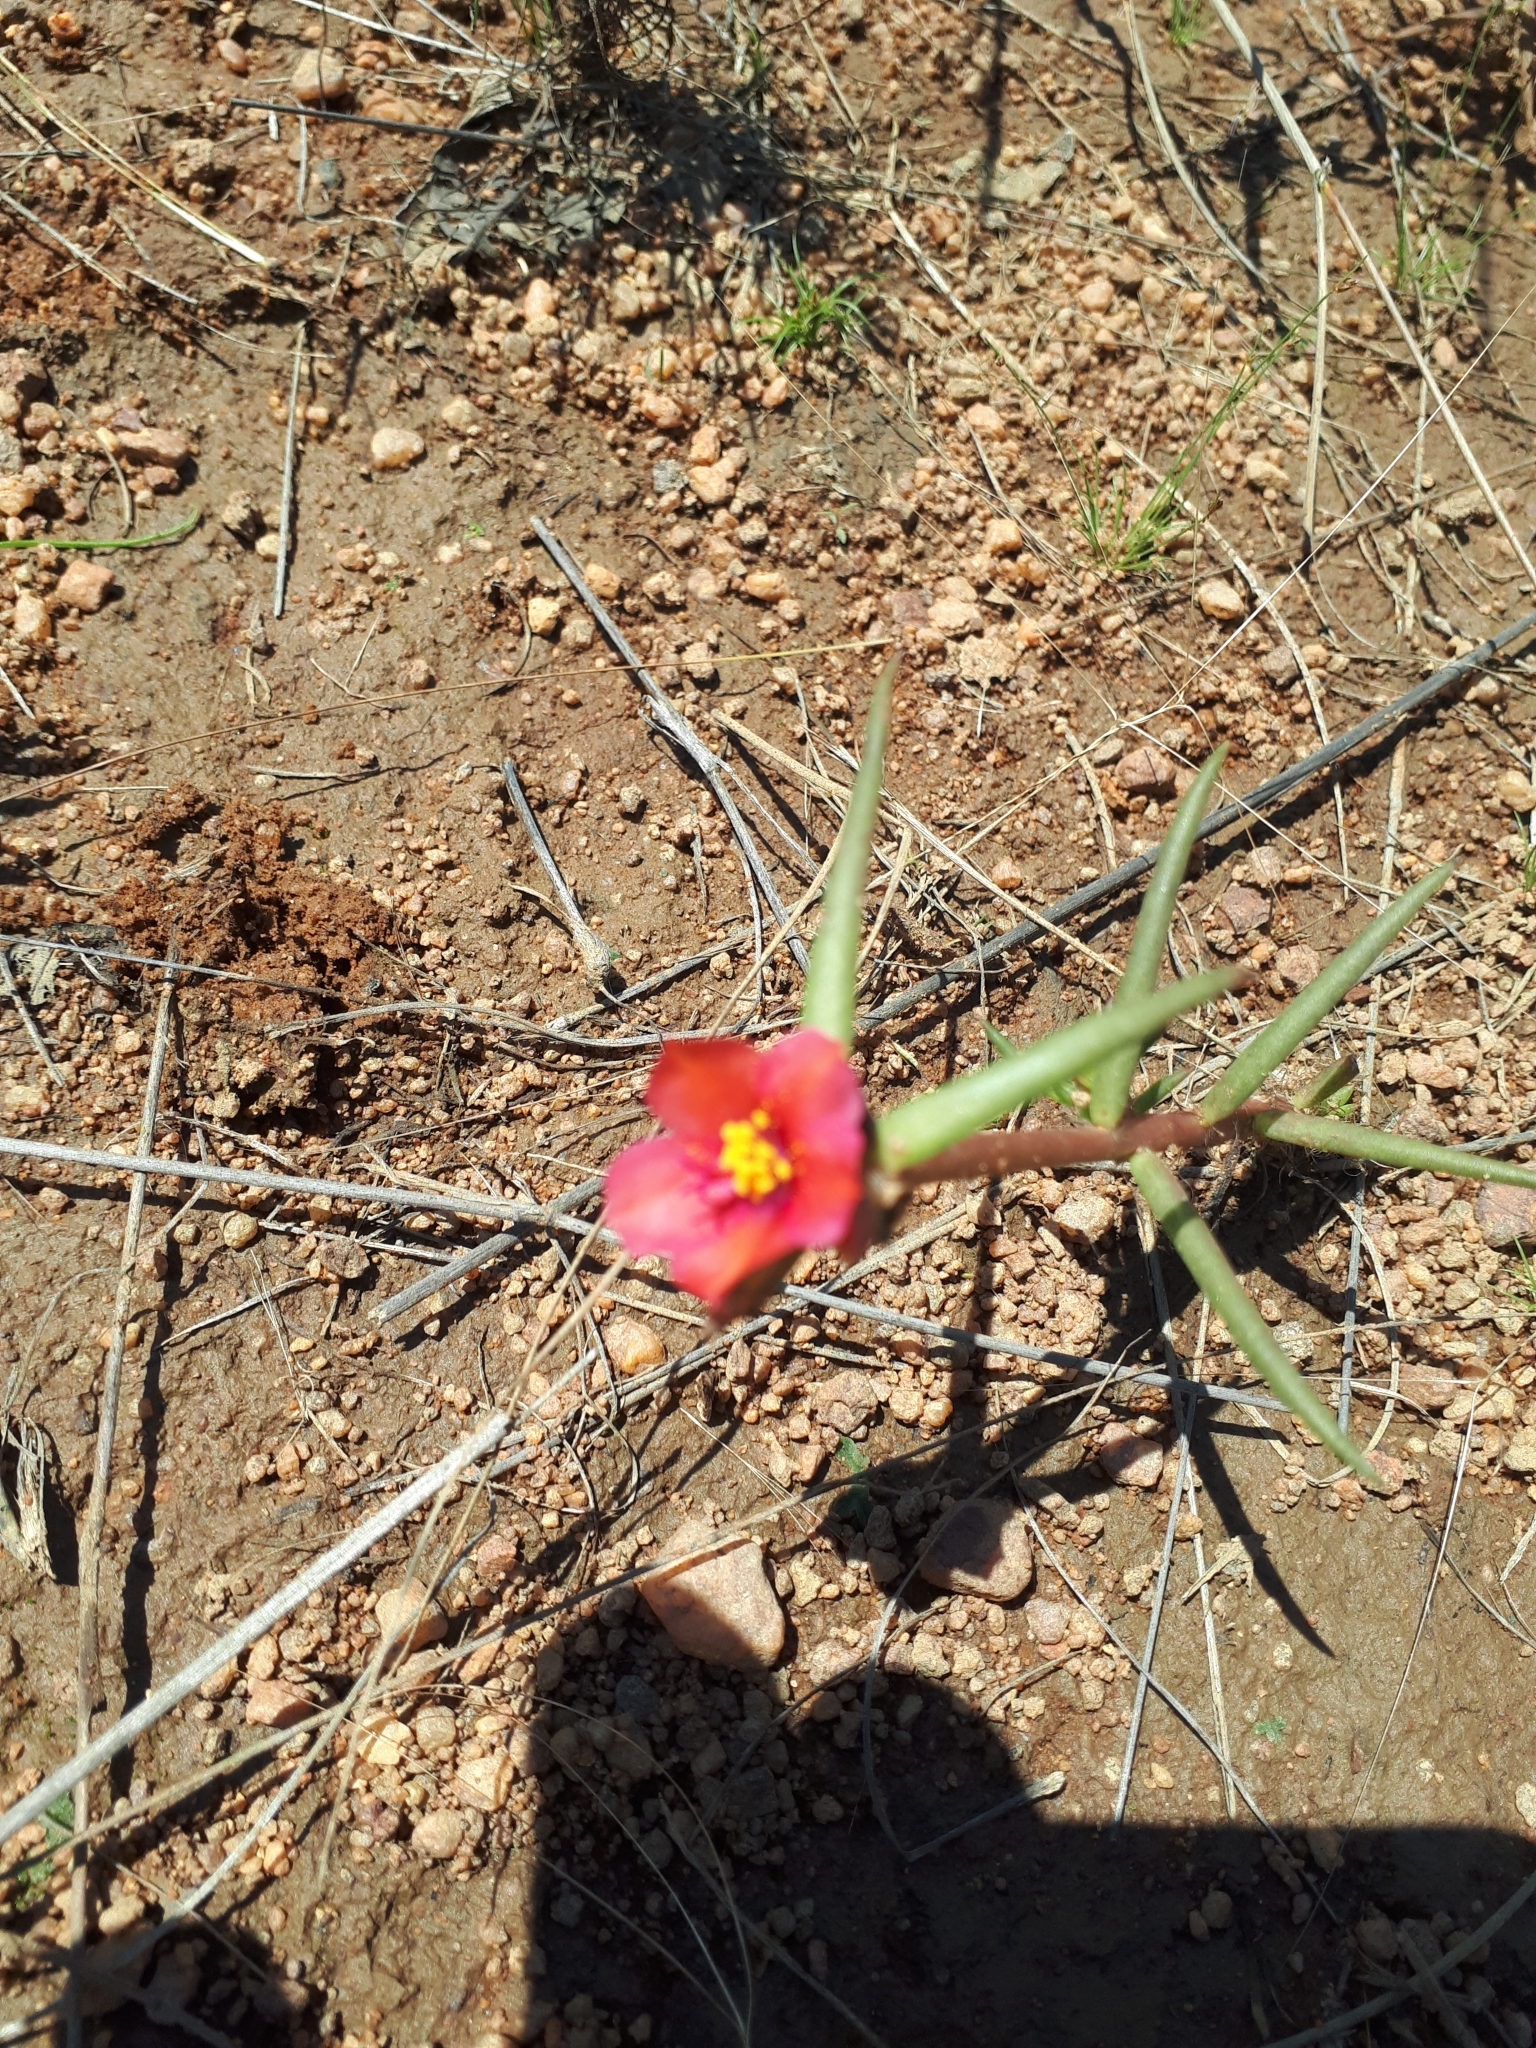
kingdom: Plantae
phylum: Tracheophyta
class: Magnoliopsida
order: Caryophyllales
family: Portulacaceae
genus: Portulaca
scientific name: Portulaca kermesina
